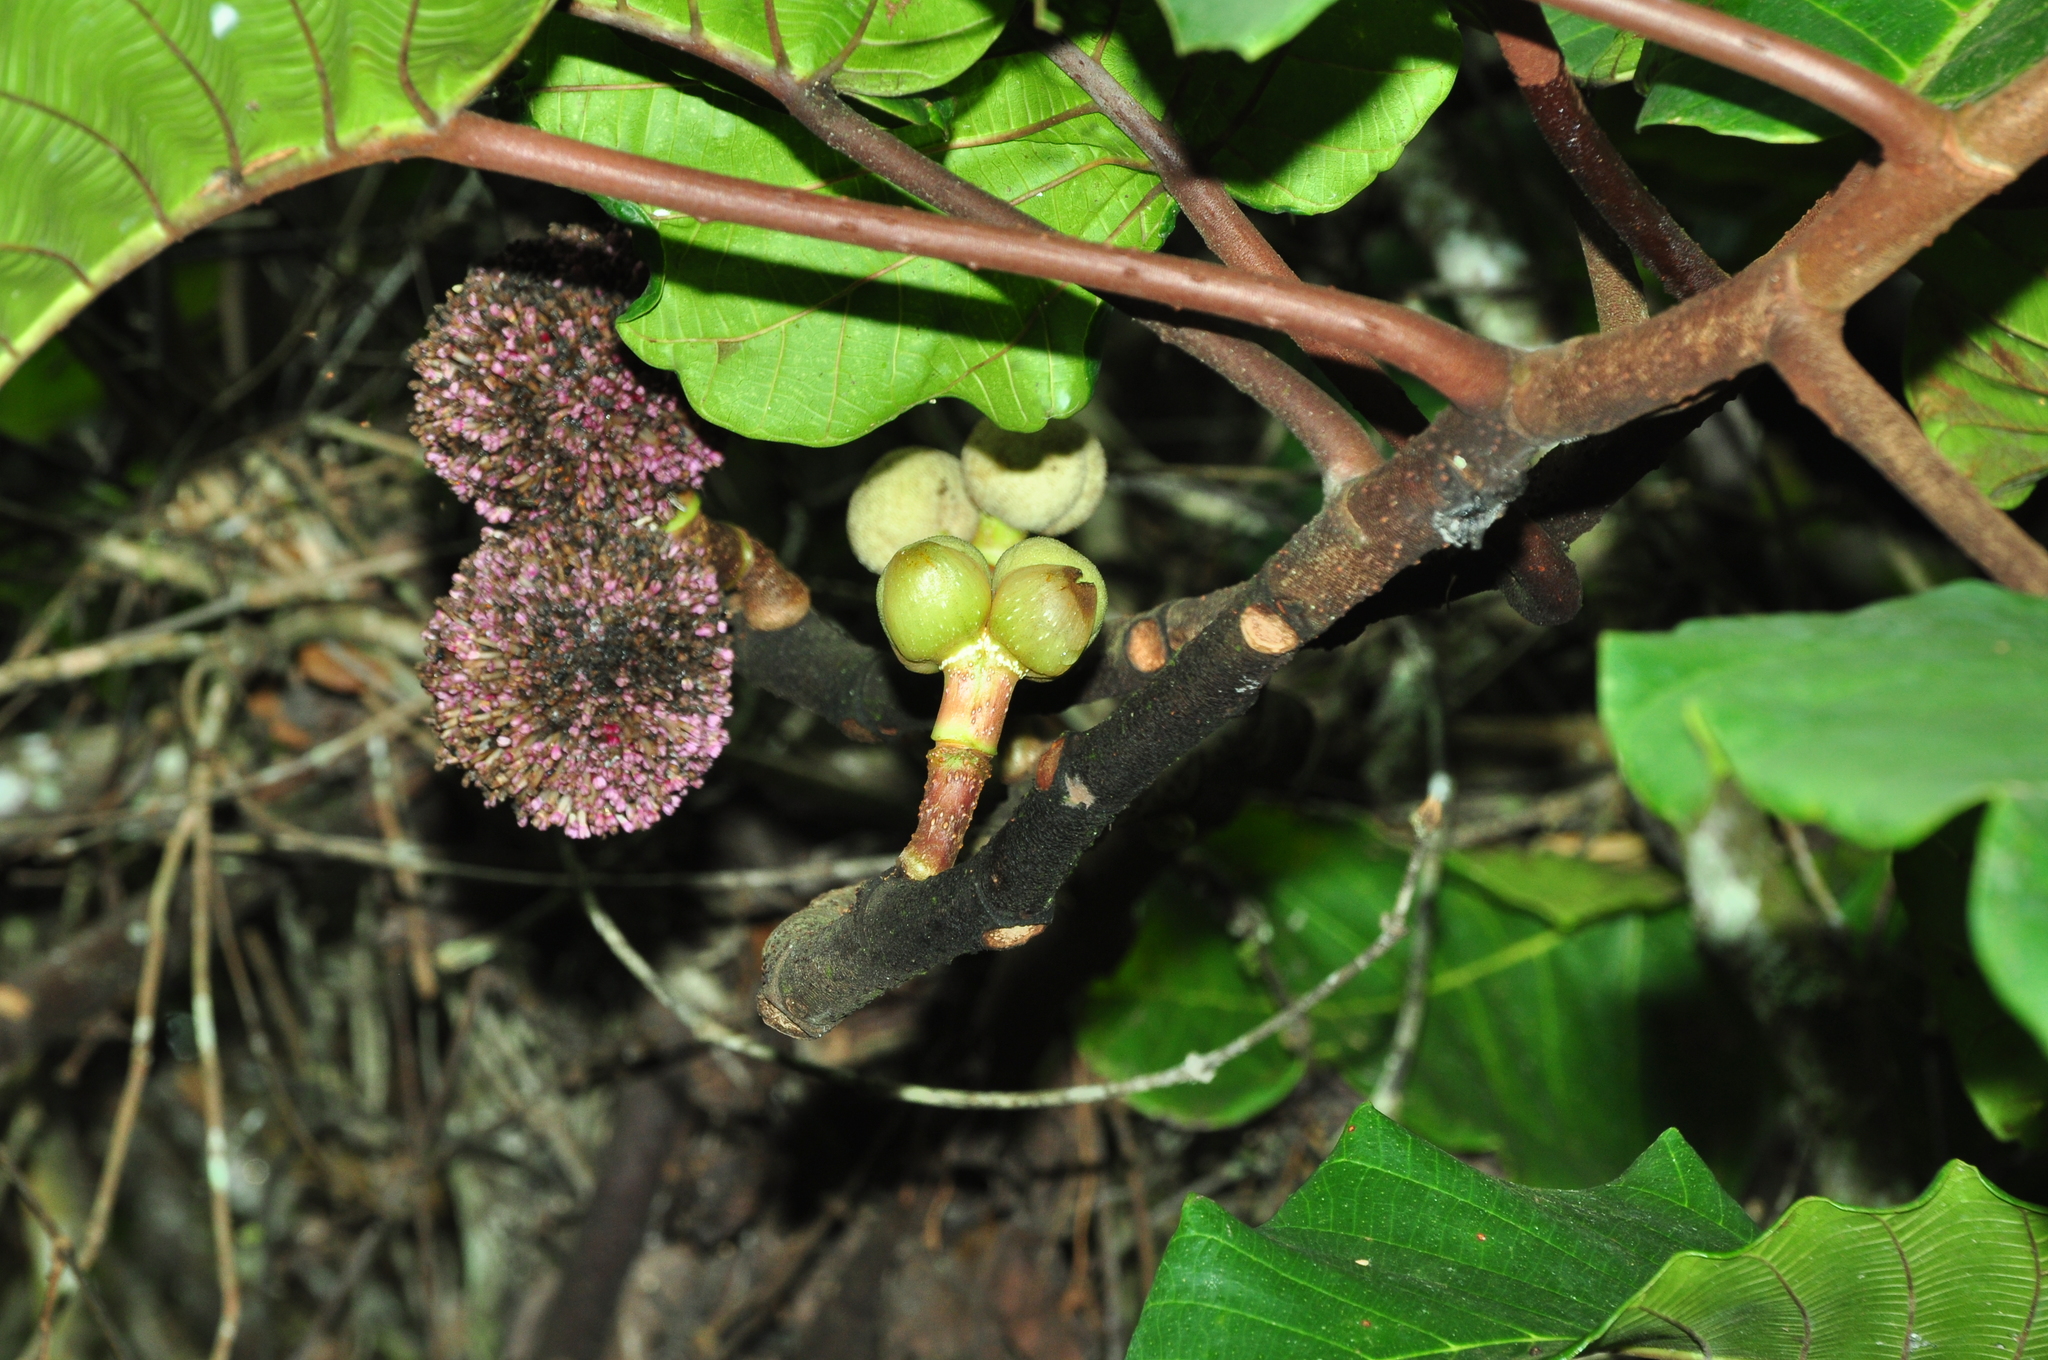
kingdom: Plantae
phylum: Tracheophyta
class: Magnoliopsida
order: Rosales
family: Urticaceae
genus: Poikilospermum
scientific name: Poikilospermum suaveolens
